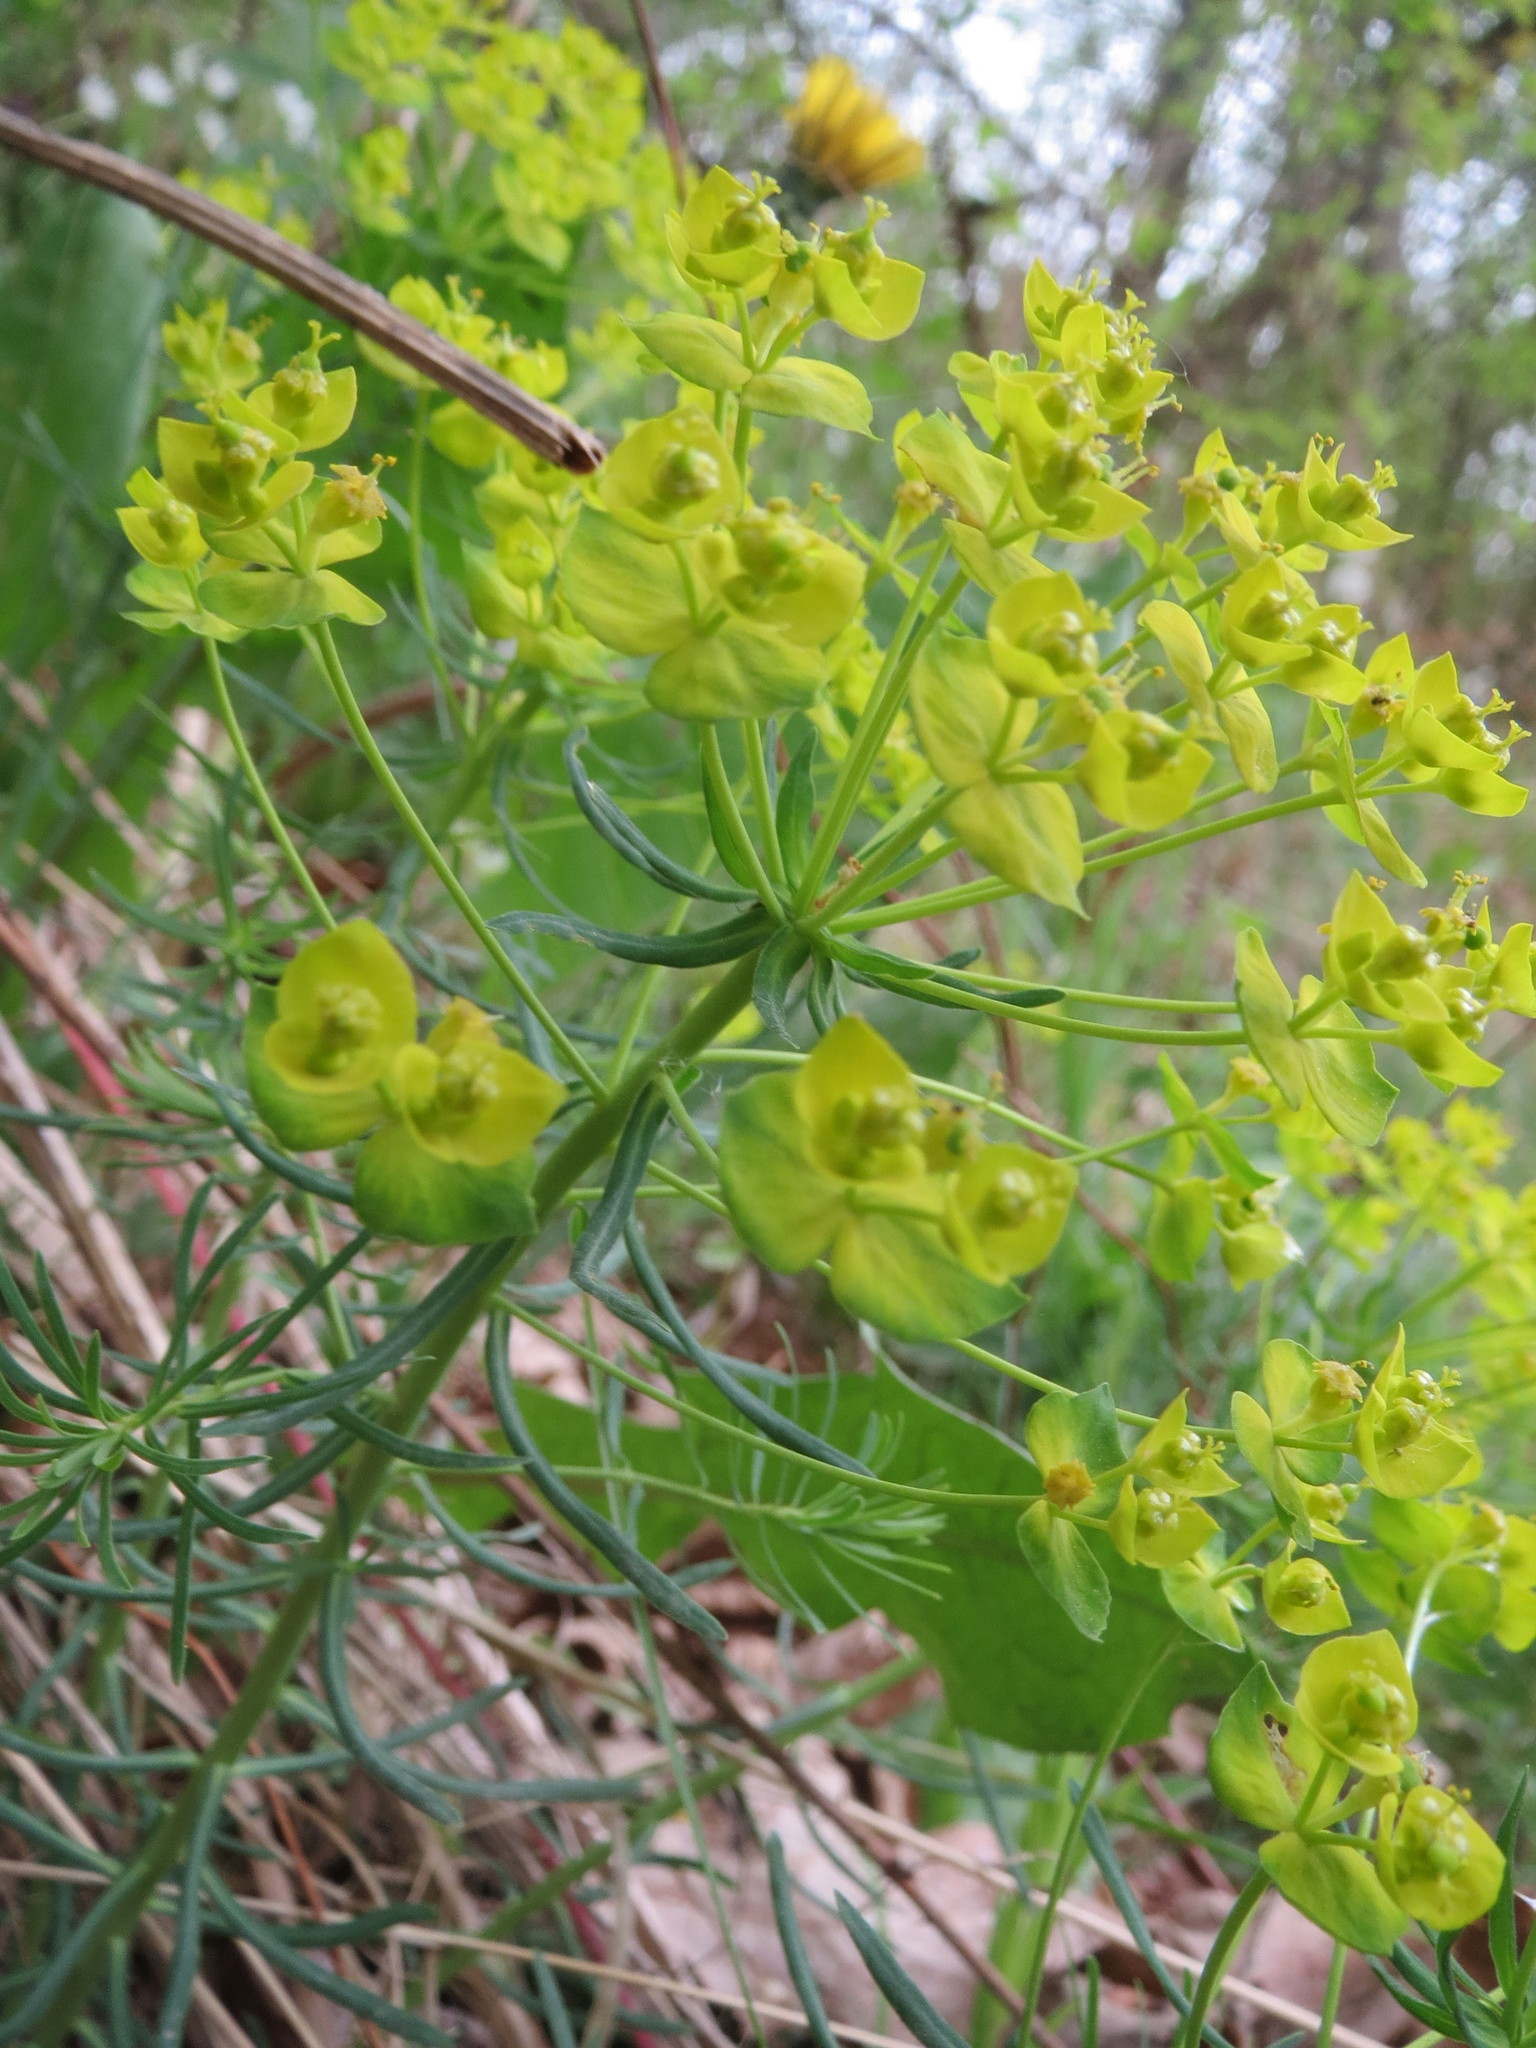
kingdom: Plantae
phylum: Tracheophyta
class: Magnoliopsida
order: Malpighiales
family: Euphorbiaceae
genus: Euphorbia
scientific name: Euphorbia cyparissias
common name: Cypress spurge
